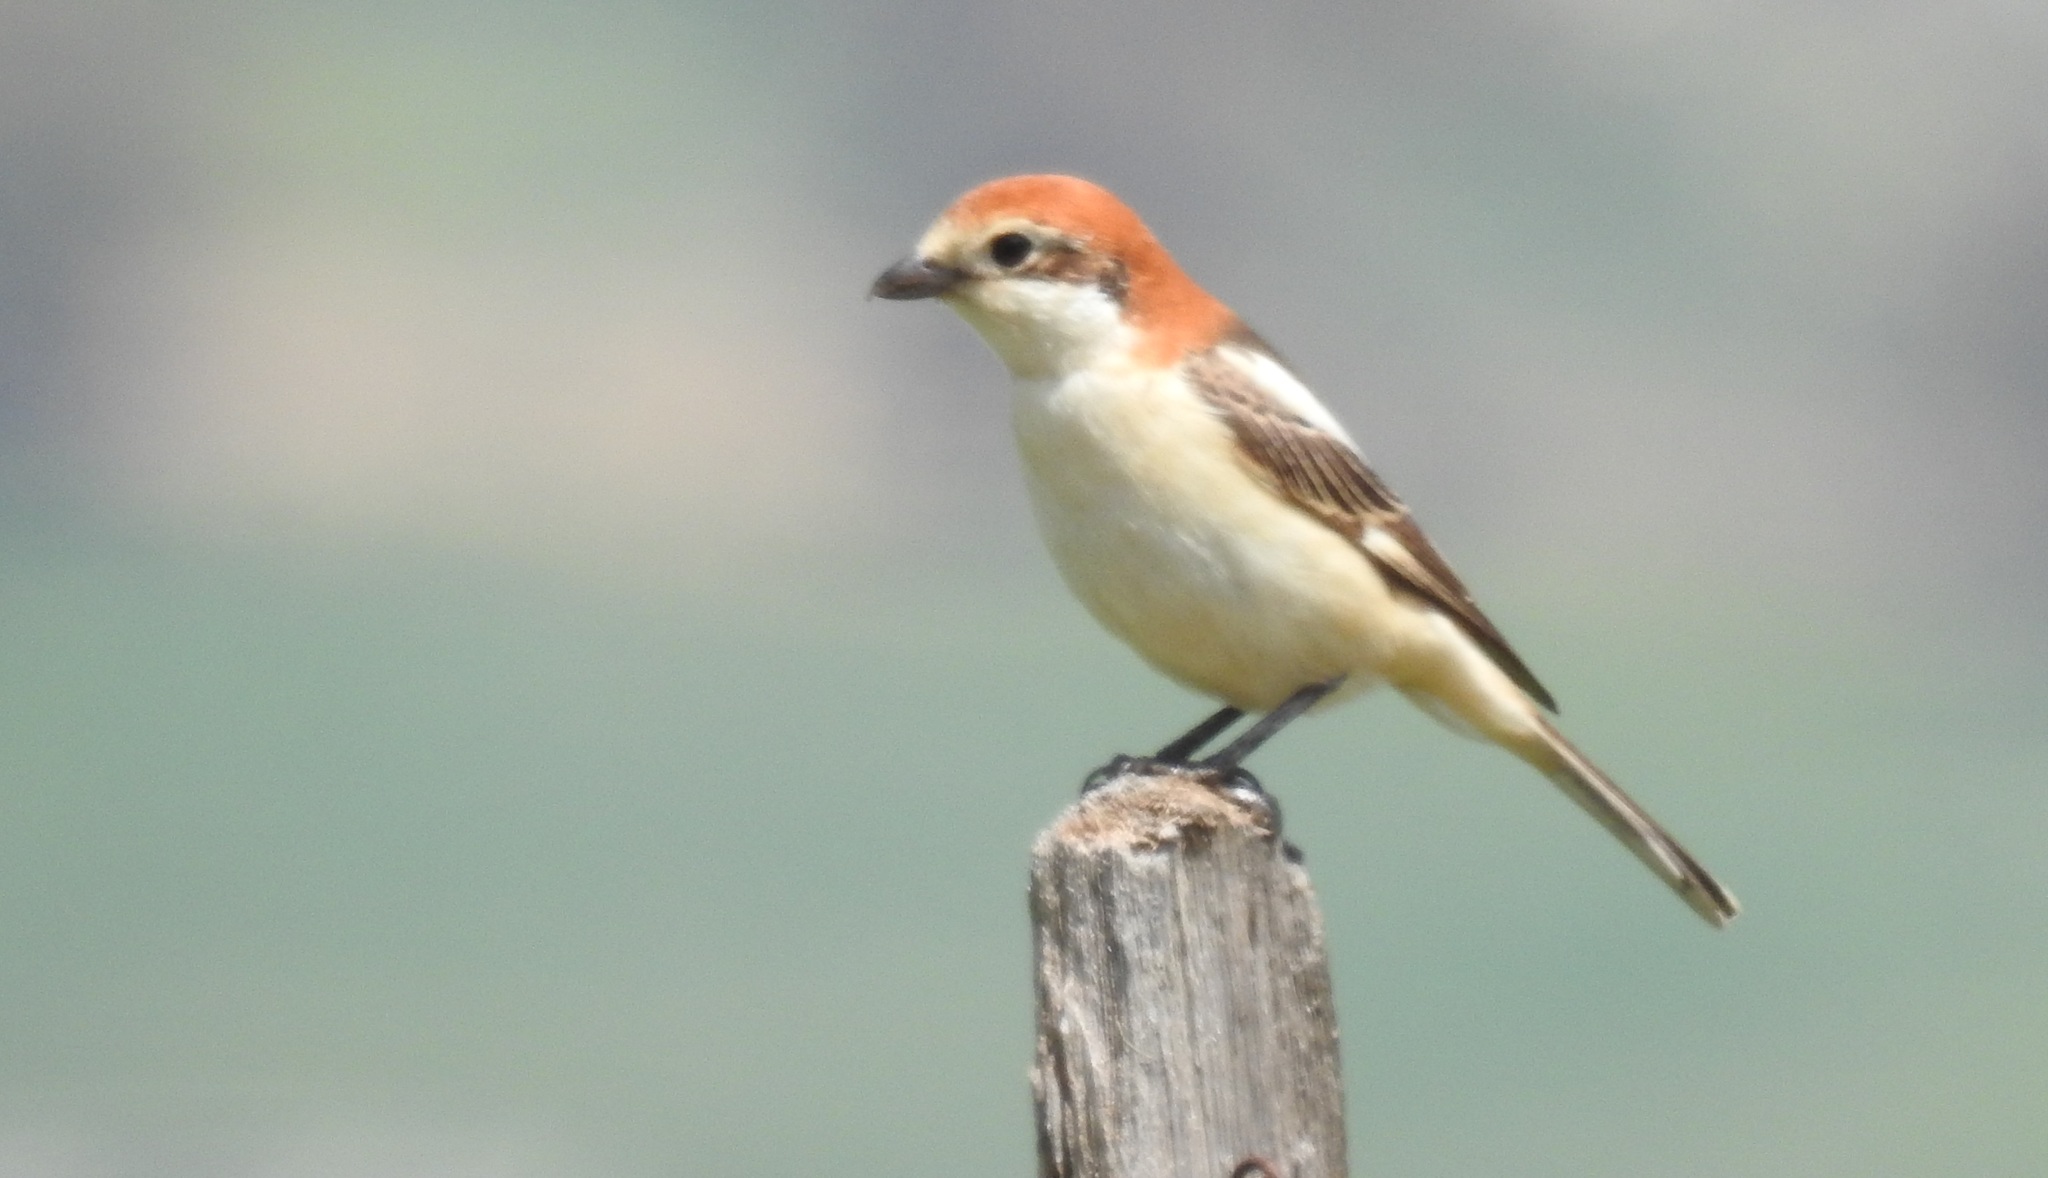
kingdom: Animalia
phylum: Chordata
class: Aves
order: Passeriformes
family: Laniidae
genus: Lanius
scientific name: Lanius senator
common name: Woodchat shrike
